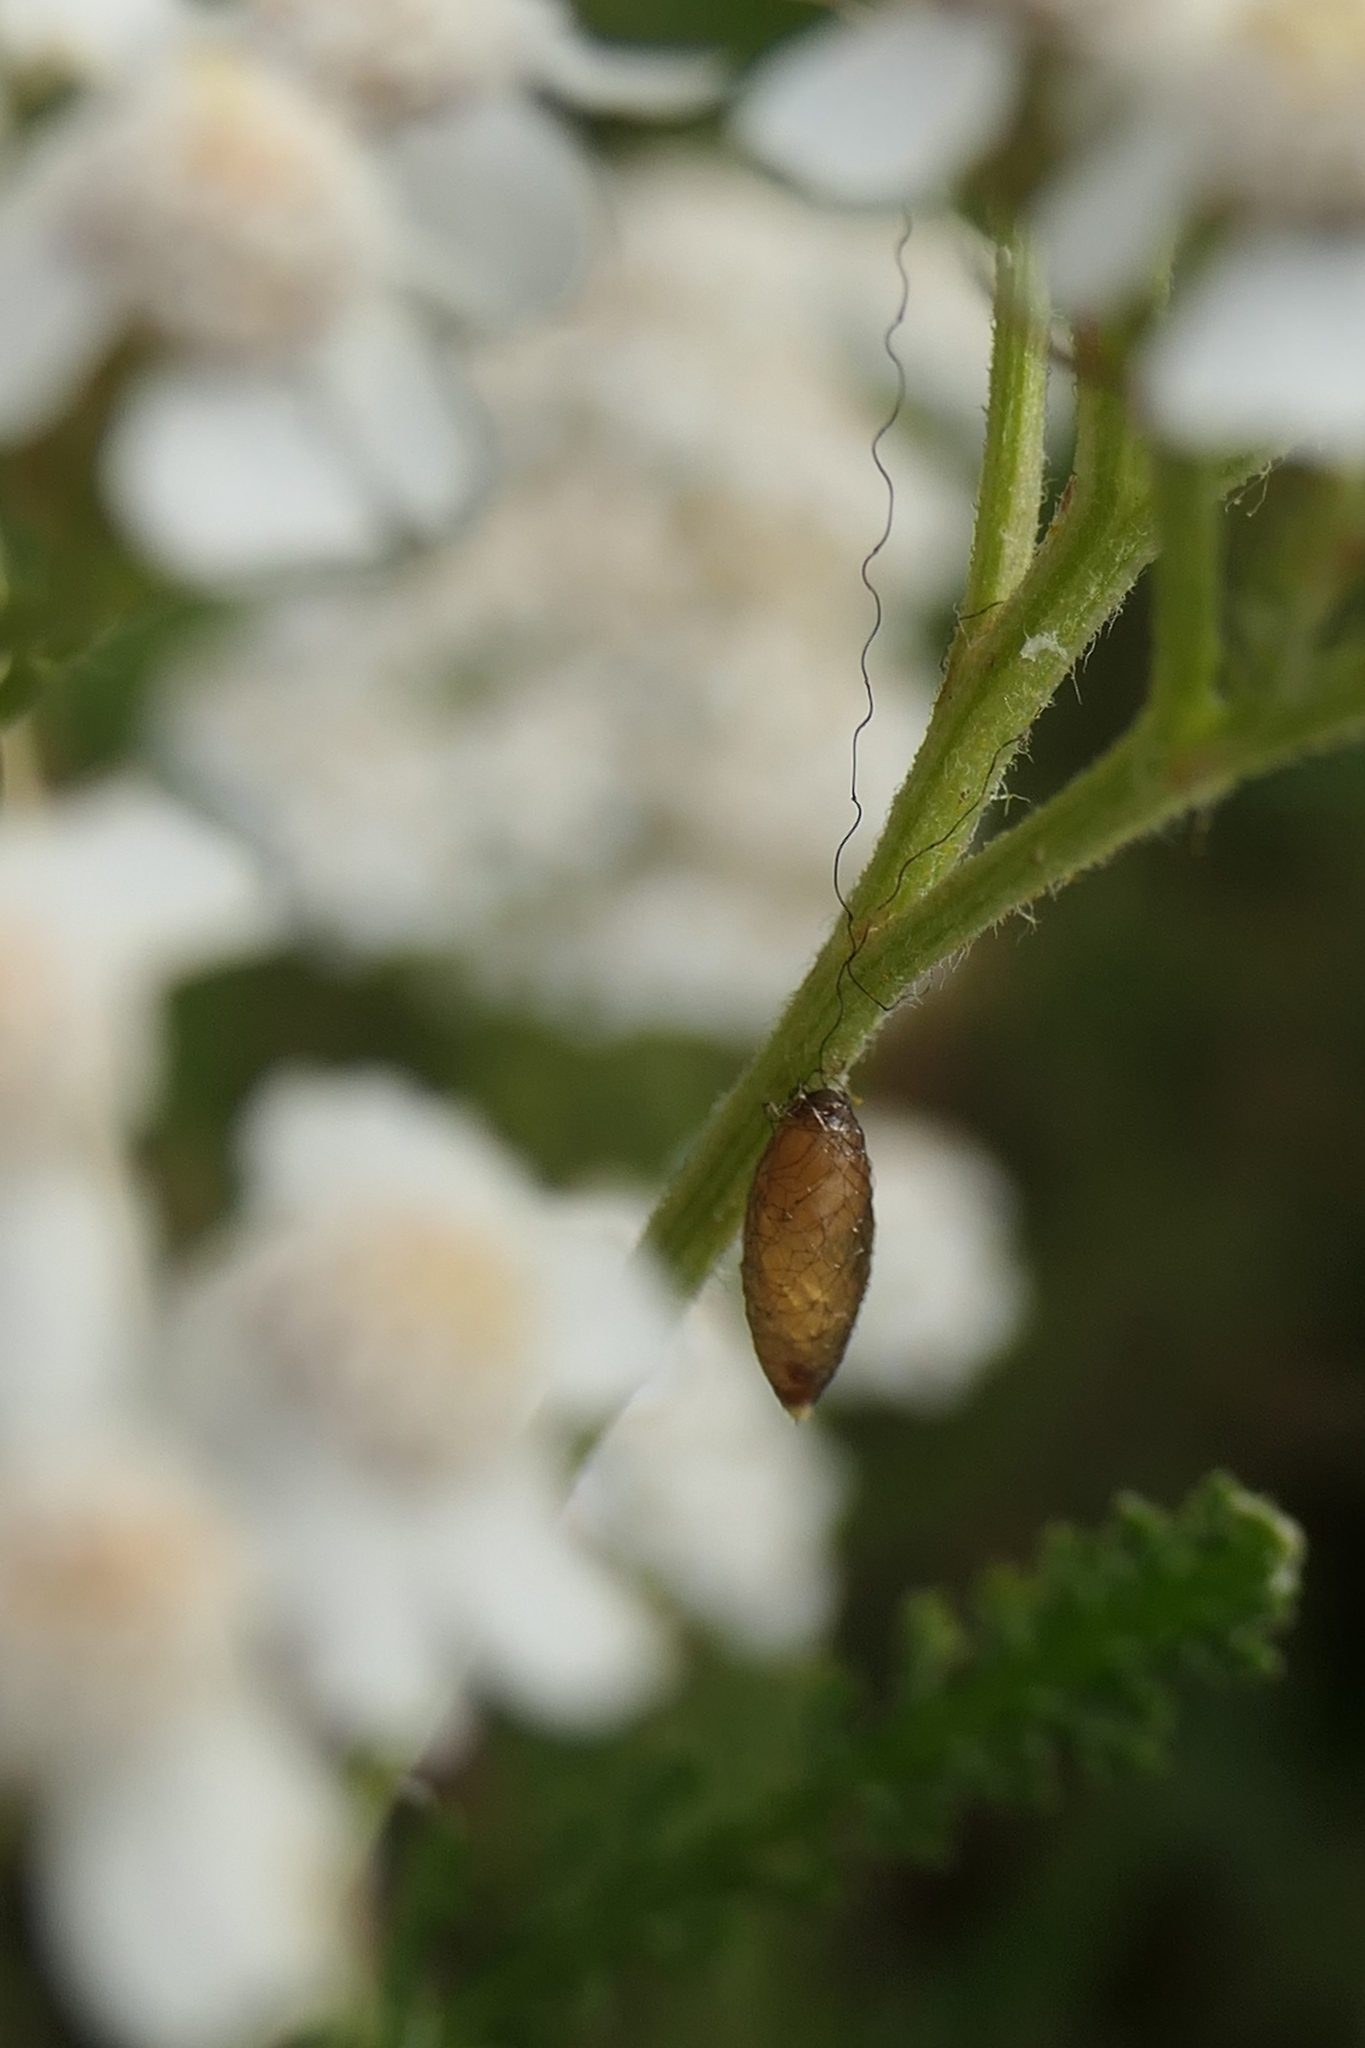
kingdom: Animalia
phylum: Arthropoda
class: Insecta
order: Hymenoptera
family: Braconidae
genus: Meteorus
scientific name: Meteorus pulchricornis
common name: Braconid wasp
